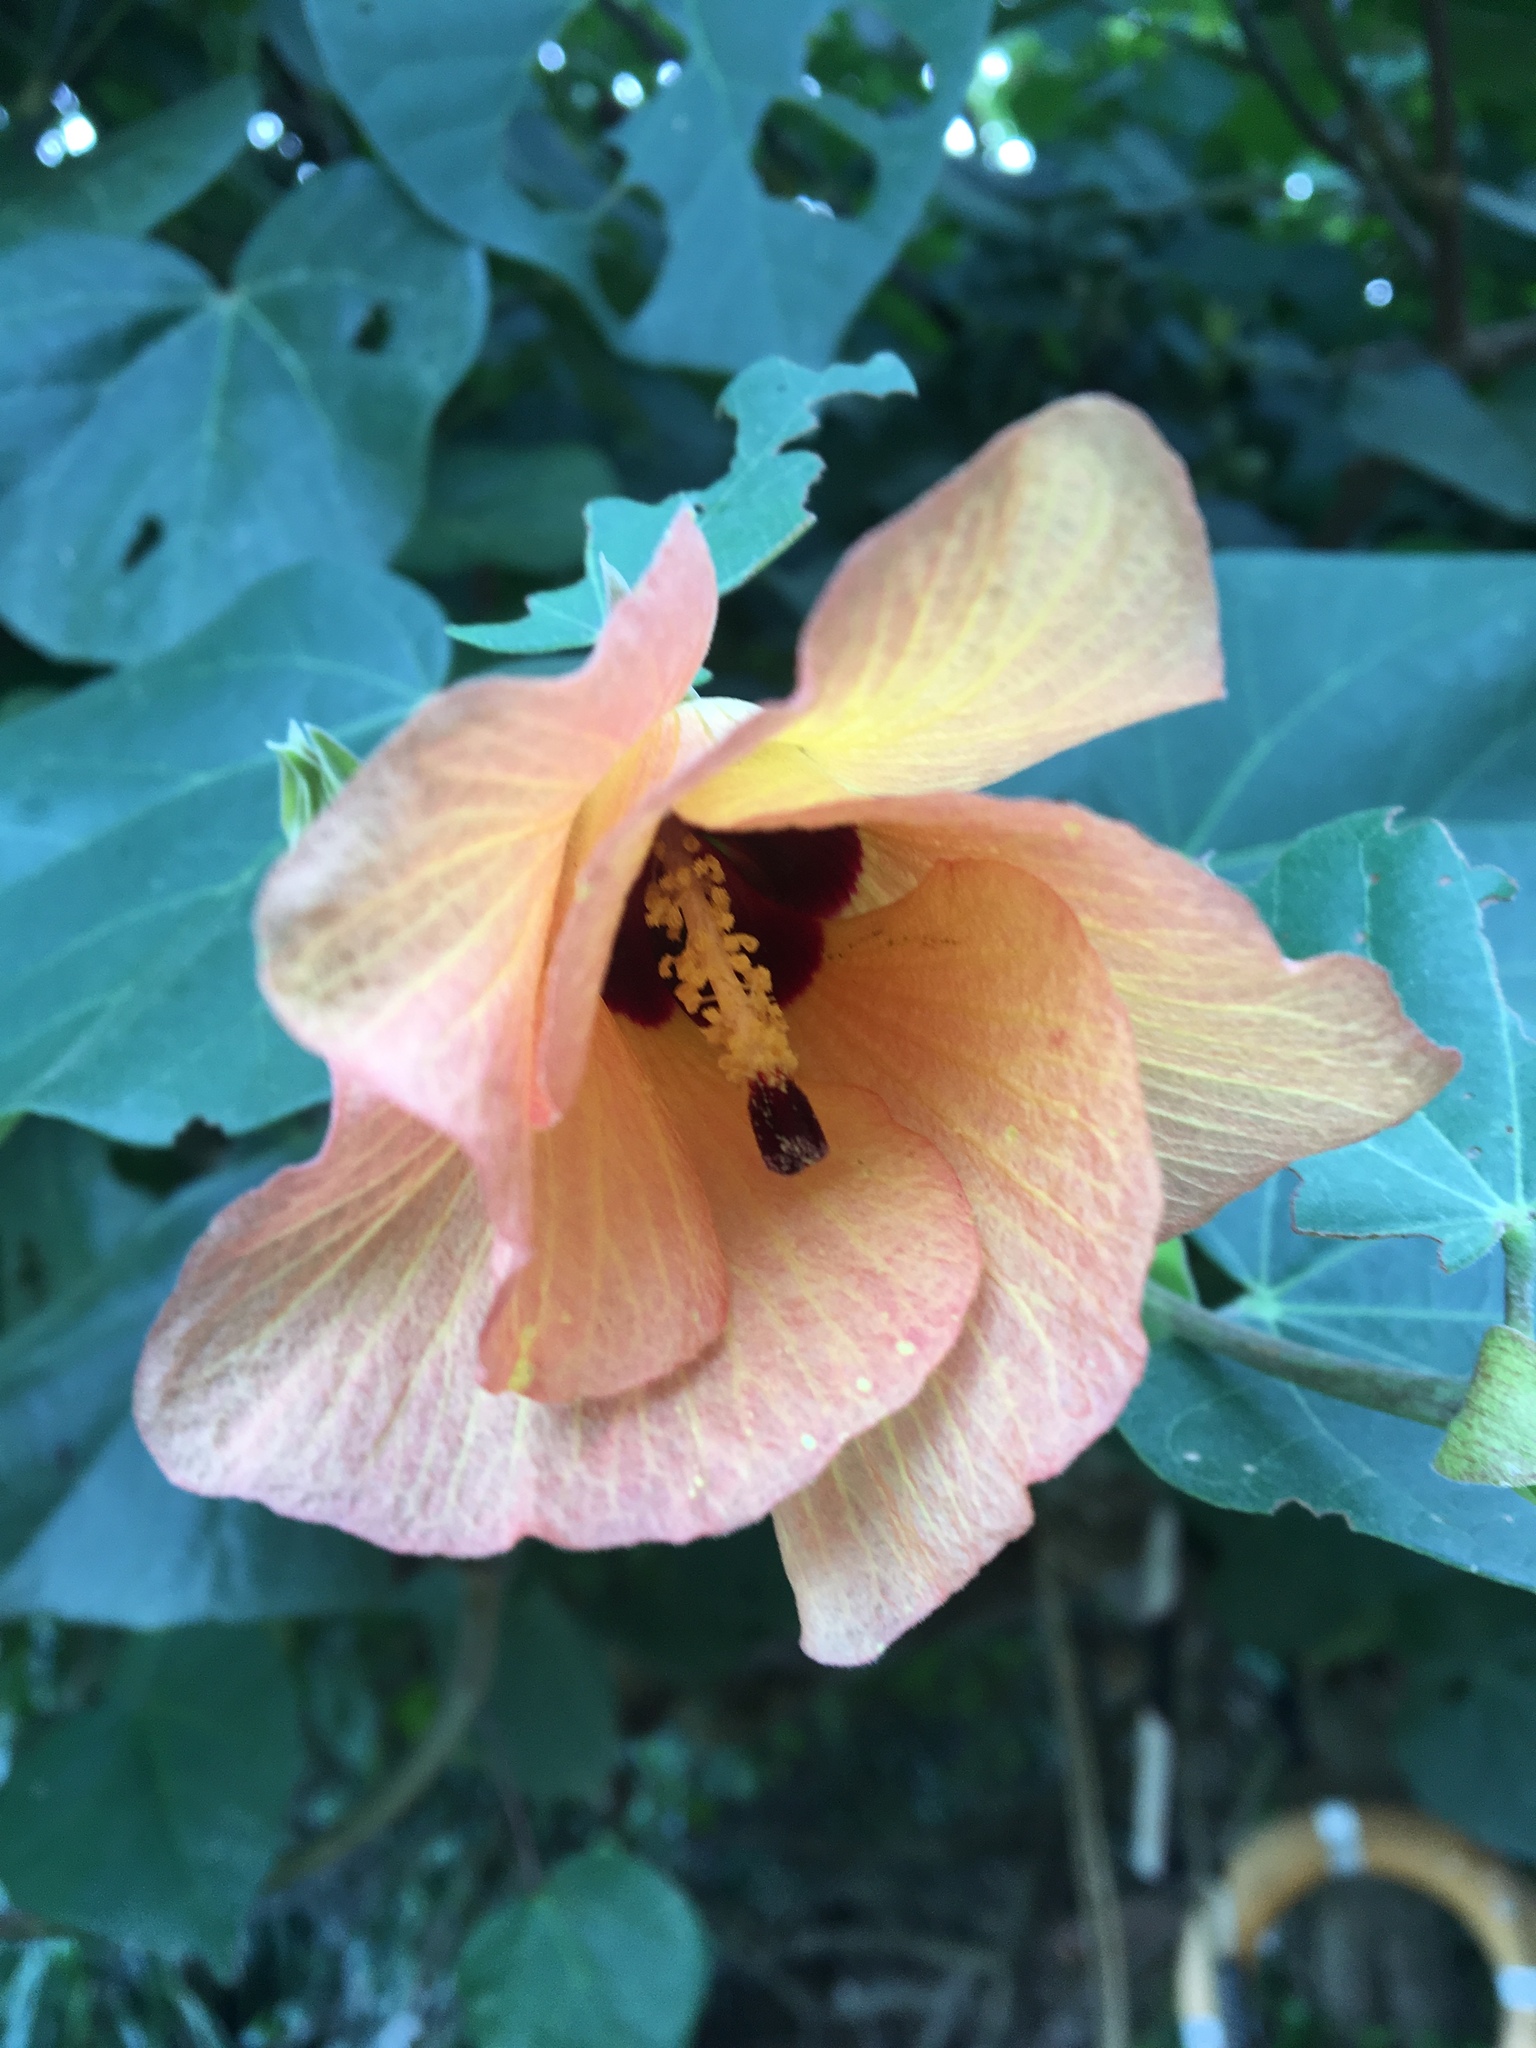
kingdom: Plantae
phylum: Tracheophyta
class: Magnoliopsida
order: Malvales
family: Malvaceae
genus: Talipariti
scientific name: Talipariti tiliaceum
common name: Sea hibiscus
